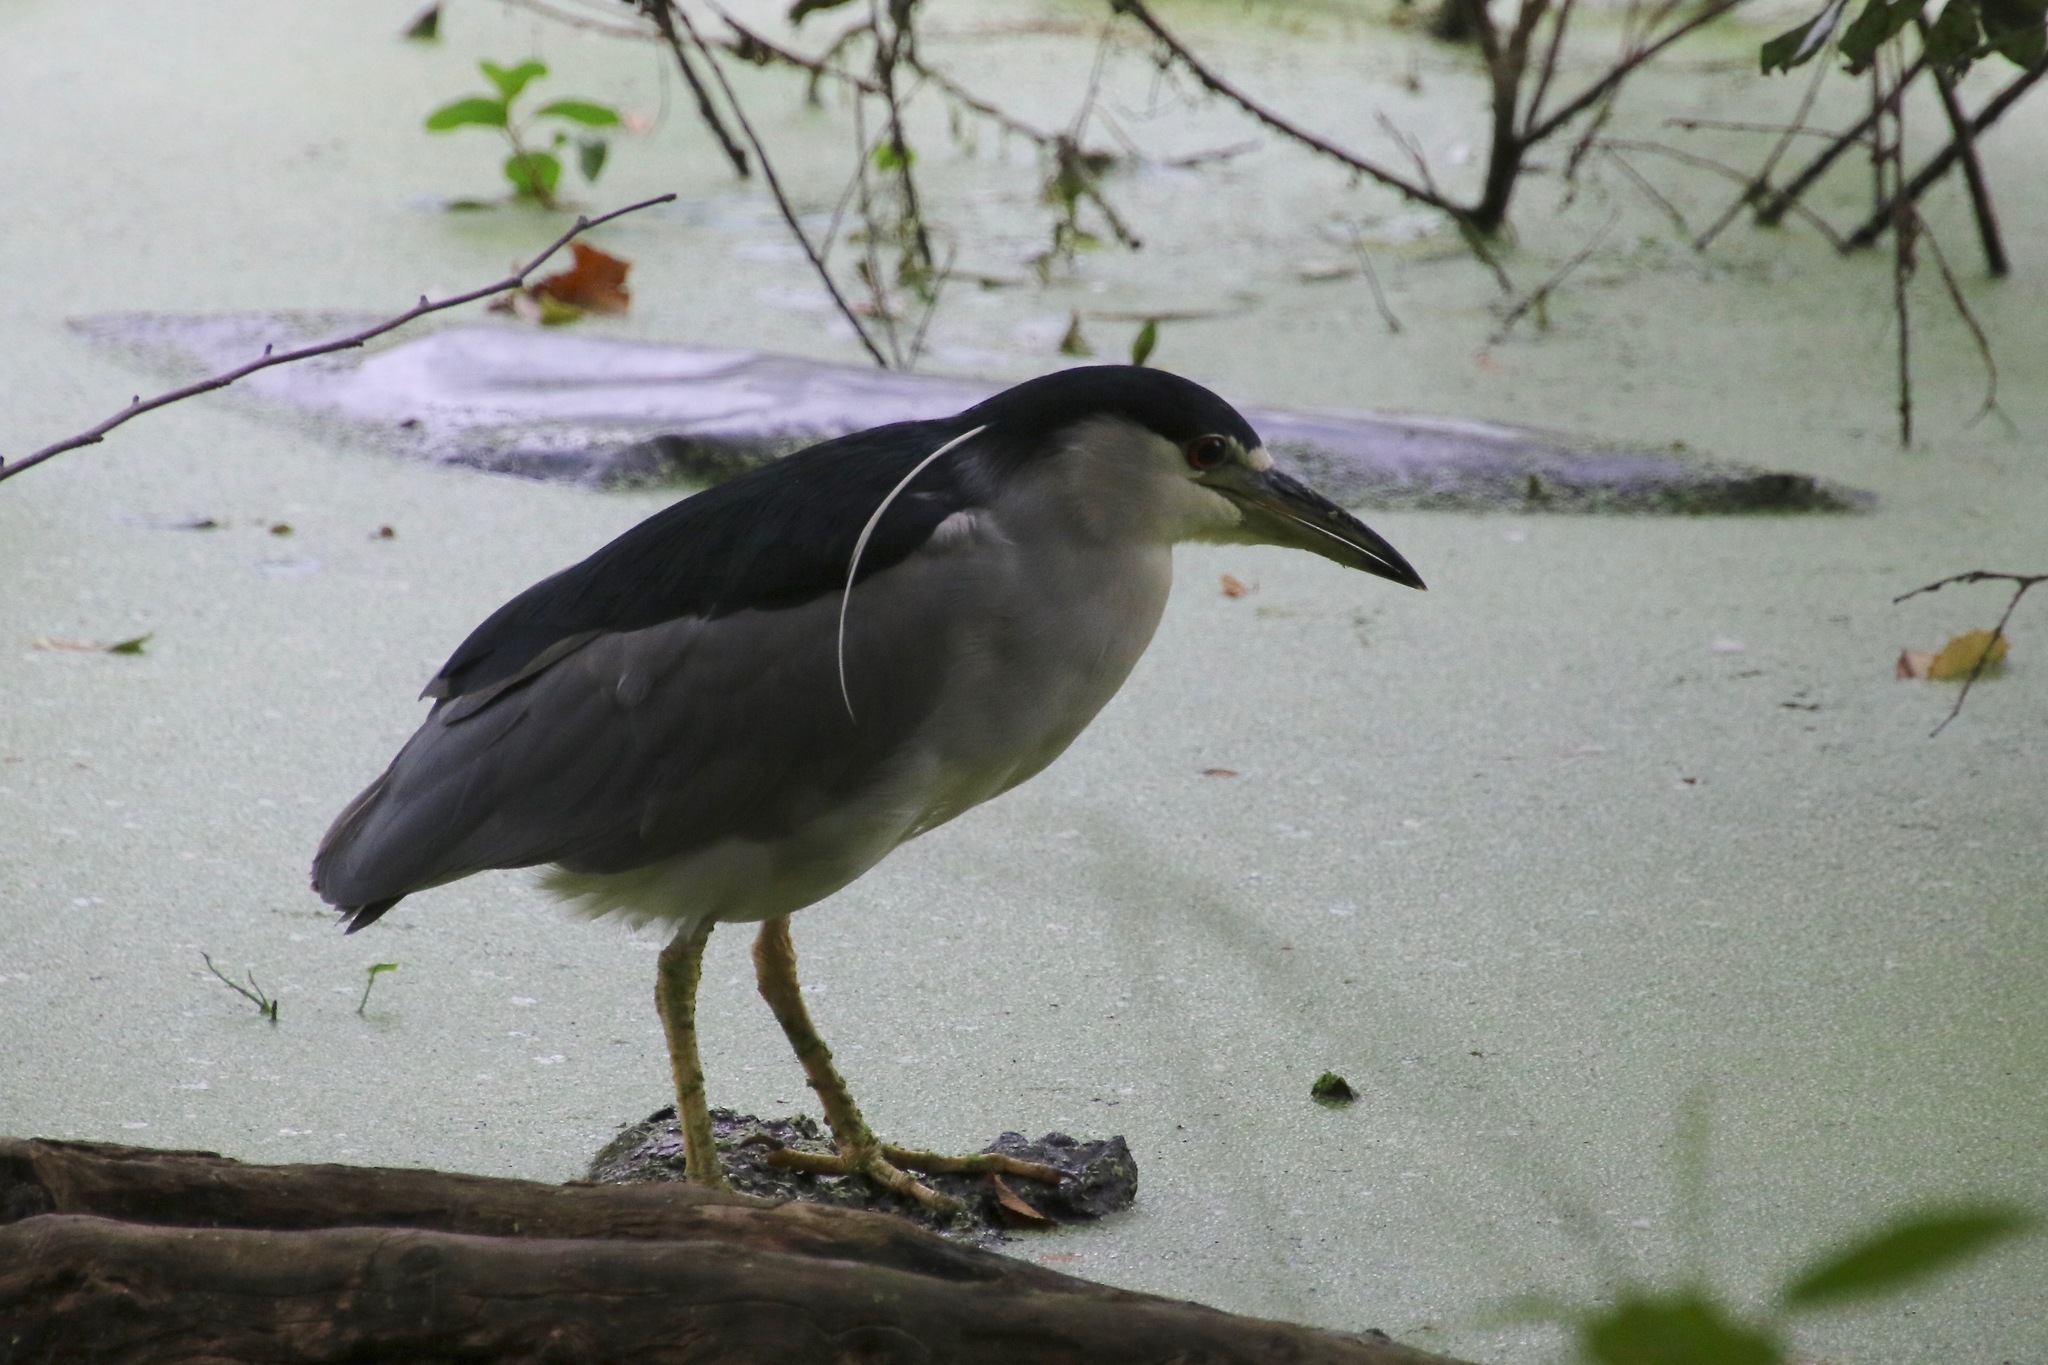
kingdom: Animalia
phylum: Chordata
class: Aves
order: Pelecaniformes
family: Ardeidae
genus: Nycticorax
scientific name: Nycticorax nycticorax
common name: Black-crowned night heron
